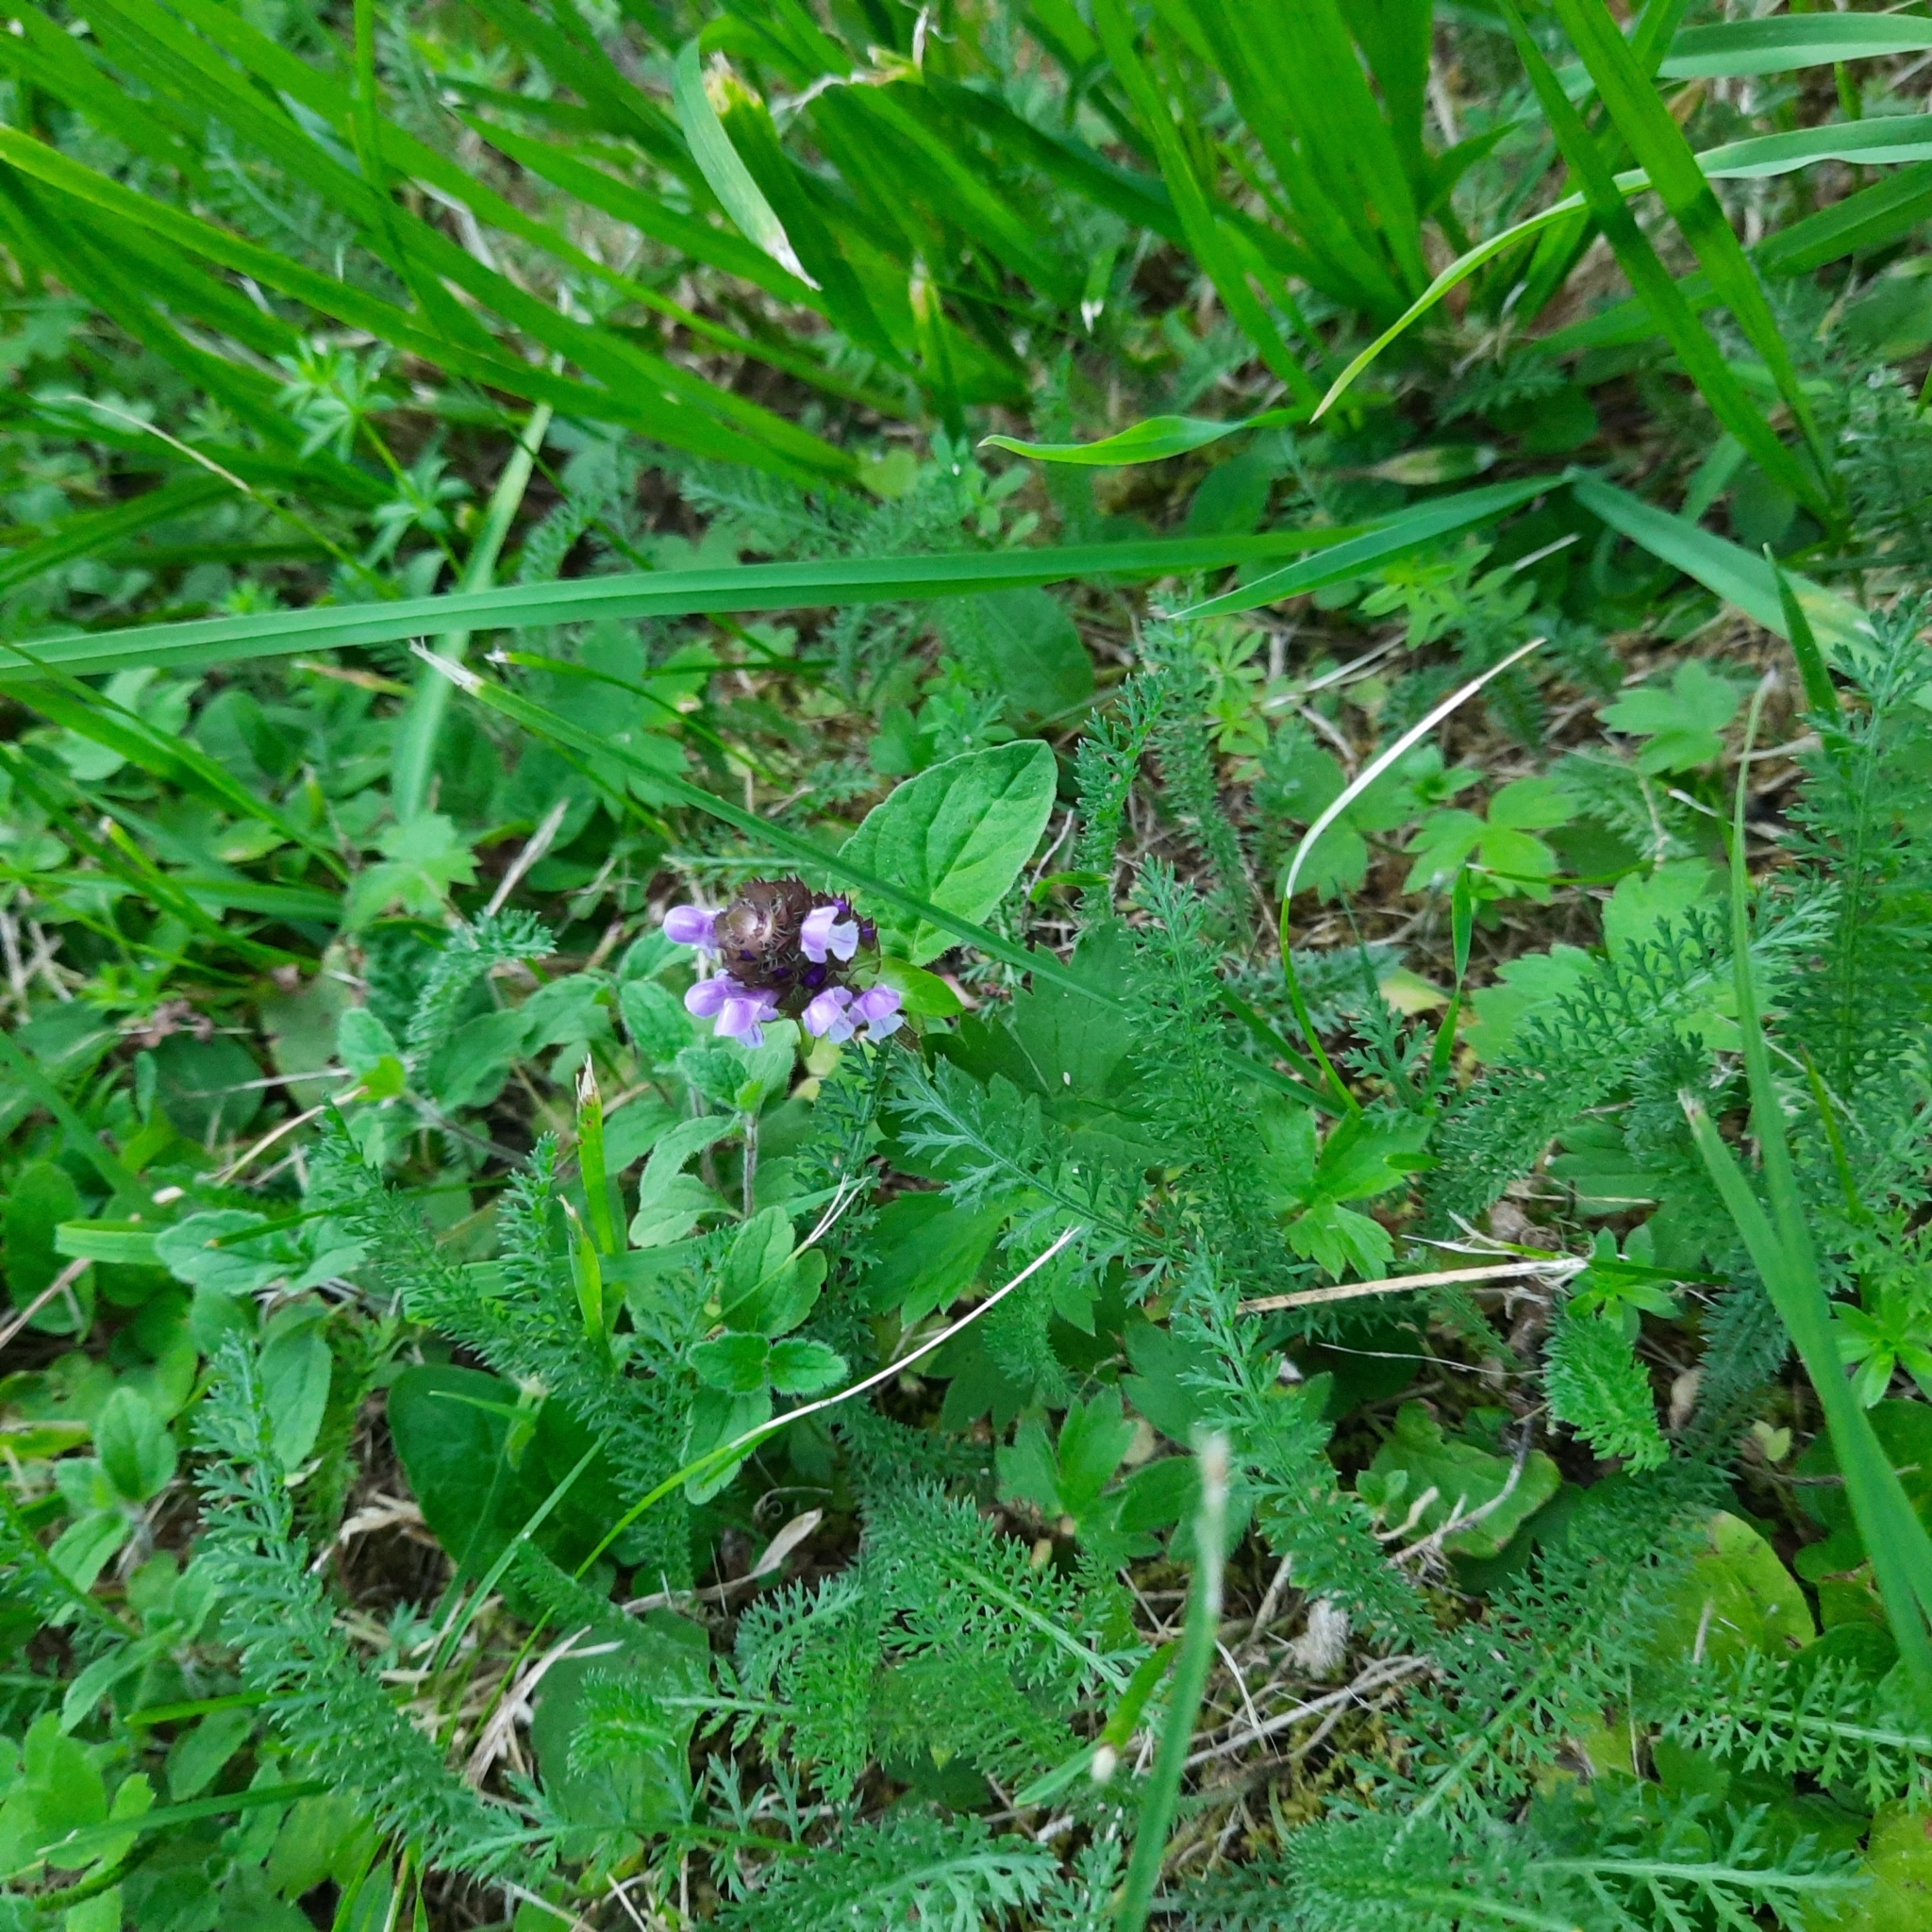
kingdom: Plantae
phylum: Tracheophyta
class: Magnoliopsida
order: Lamiales
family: Lamiaceae
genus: Prunella
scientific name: Prunella vulgaris
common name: Heal-all
